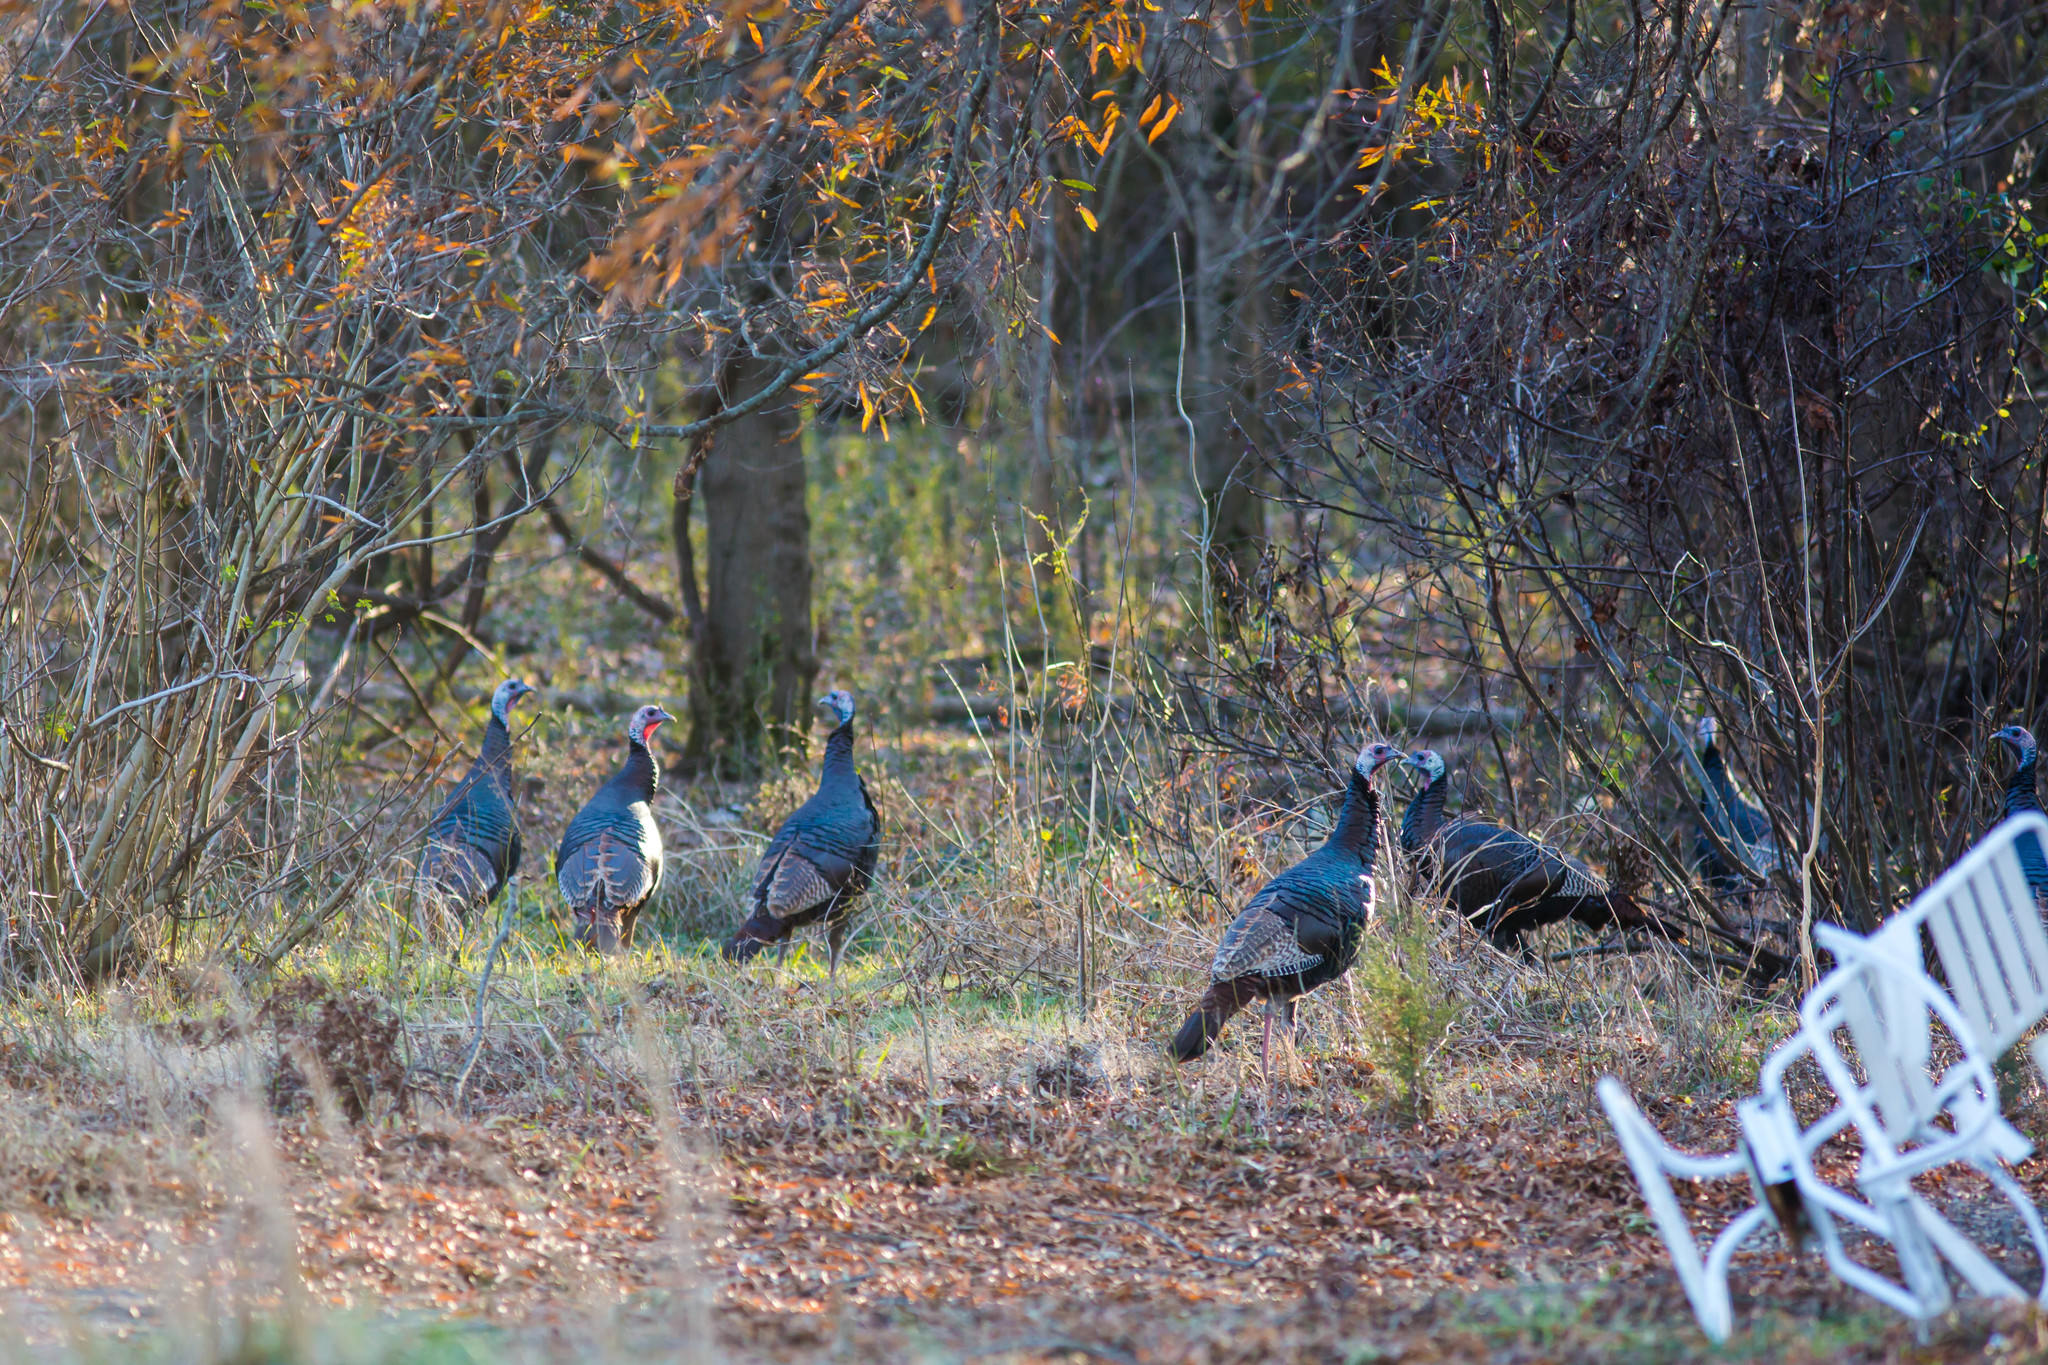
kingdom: Animalia
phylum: Chordata
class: Aves
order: Galliformes
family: Phasianidae
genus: Meleagris
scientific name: Meleagris gallopavo
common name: Wild turkey
